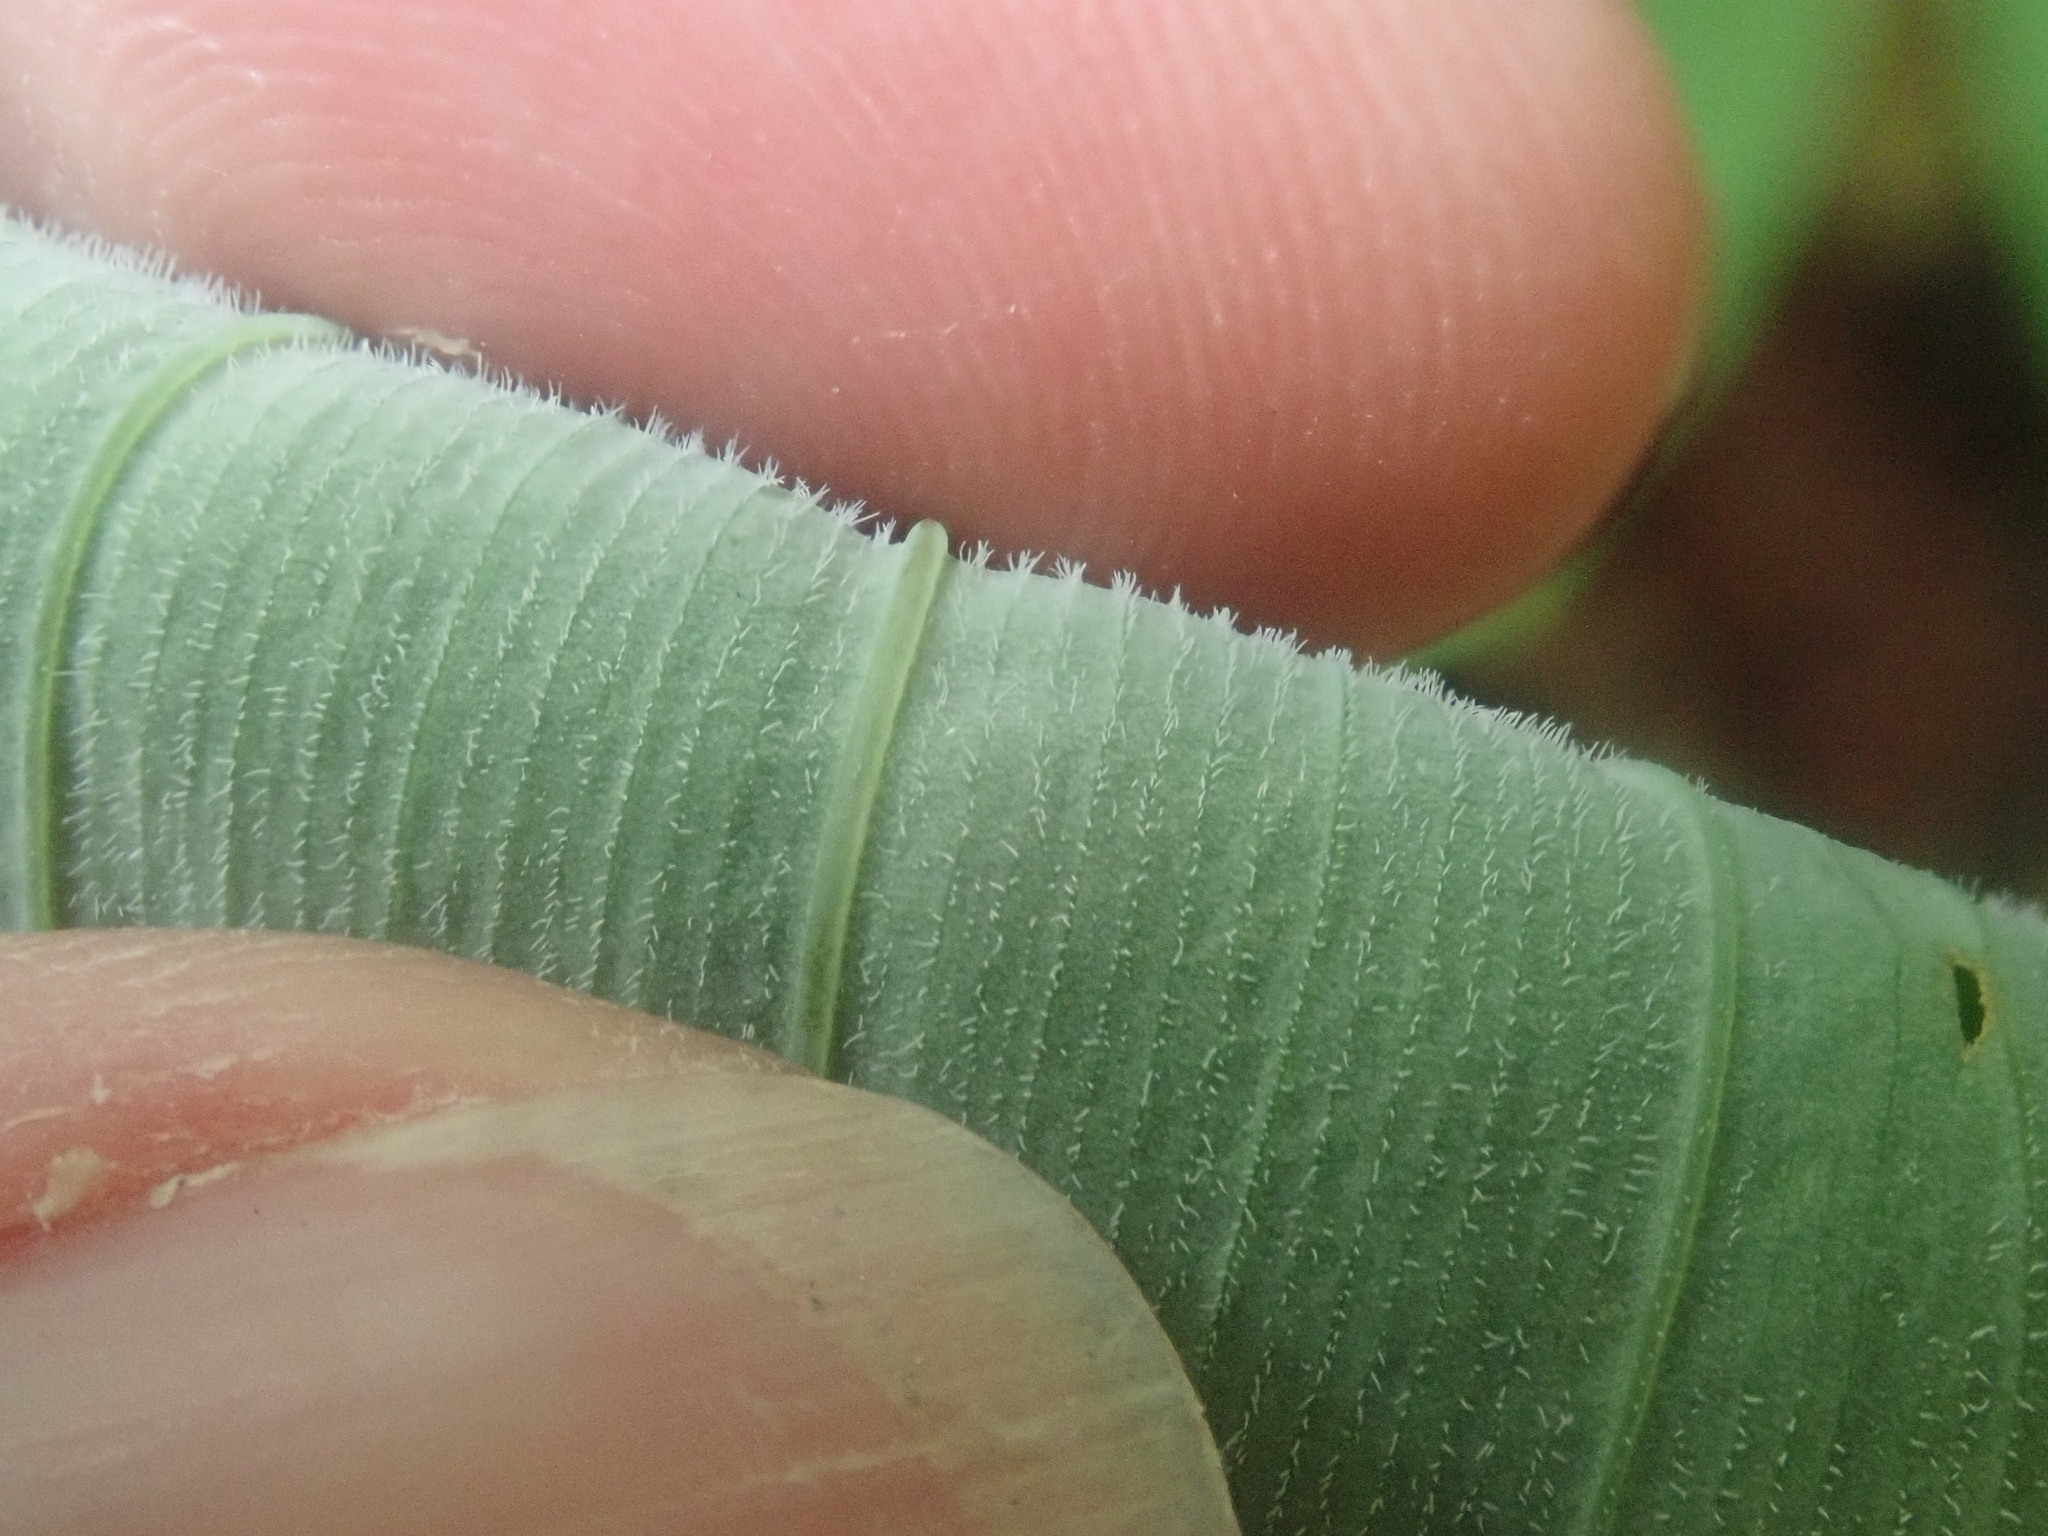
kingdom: Plantae
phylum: Tracheophyta
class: Liliopsida
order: Asparagales
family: Asparagaceae
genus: Polygonatum
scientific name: Polygonatum pubescens
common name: Downy solomon's seal
